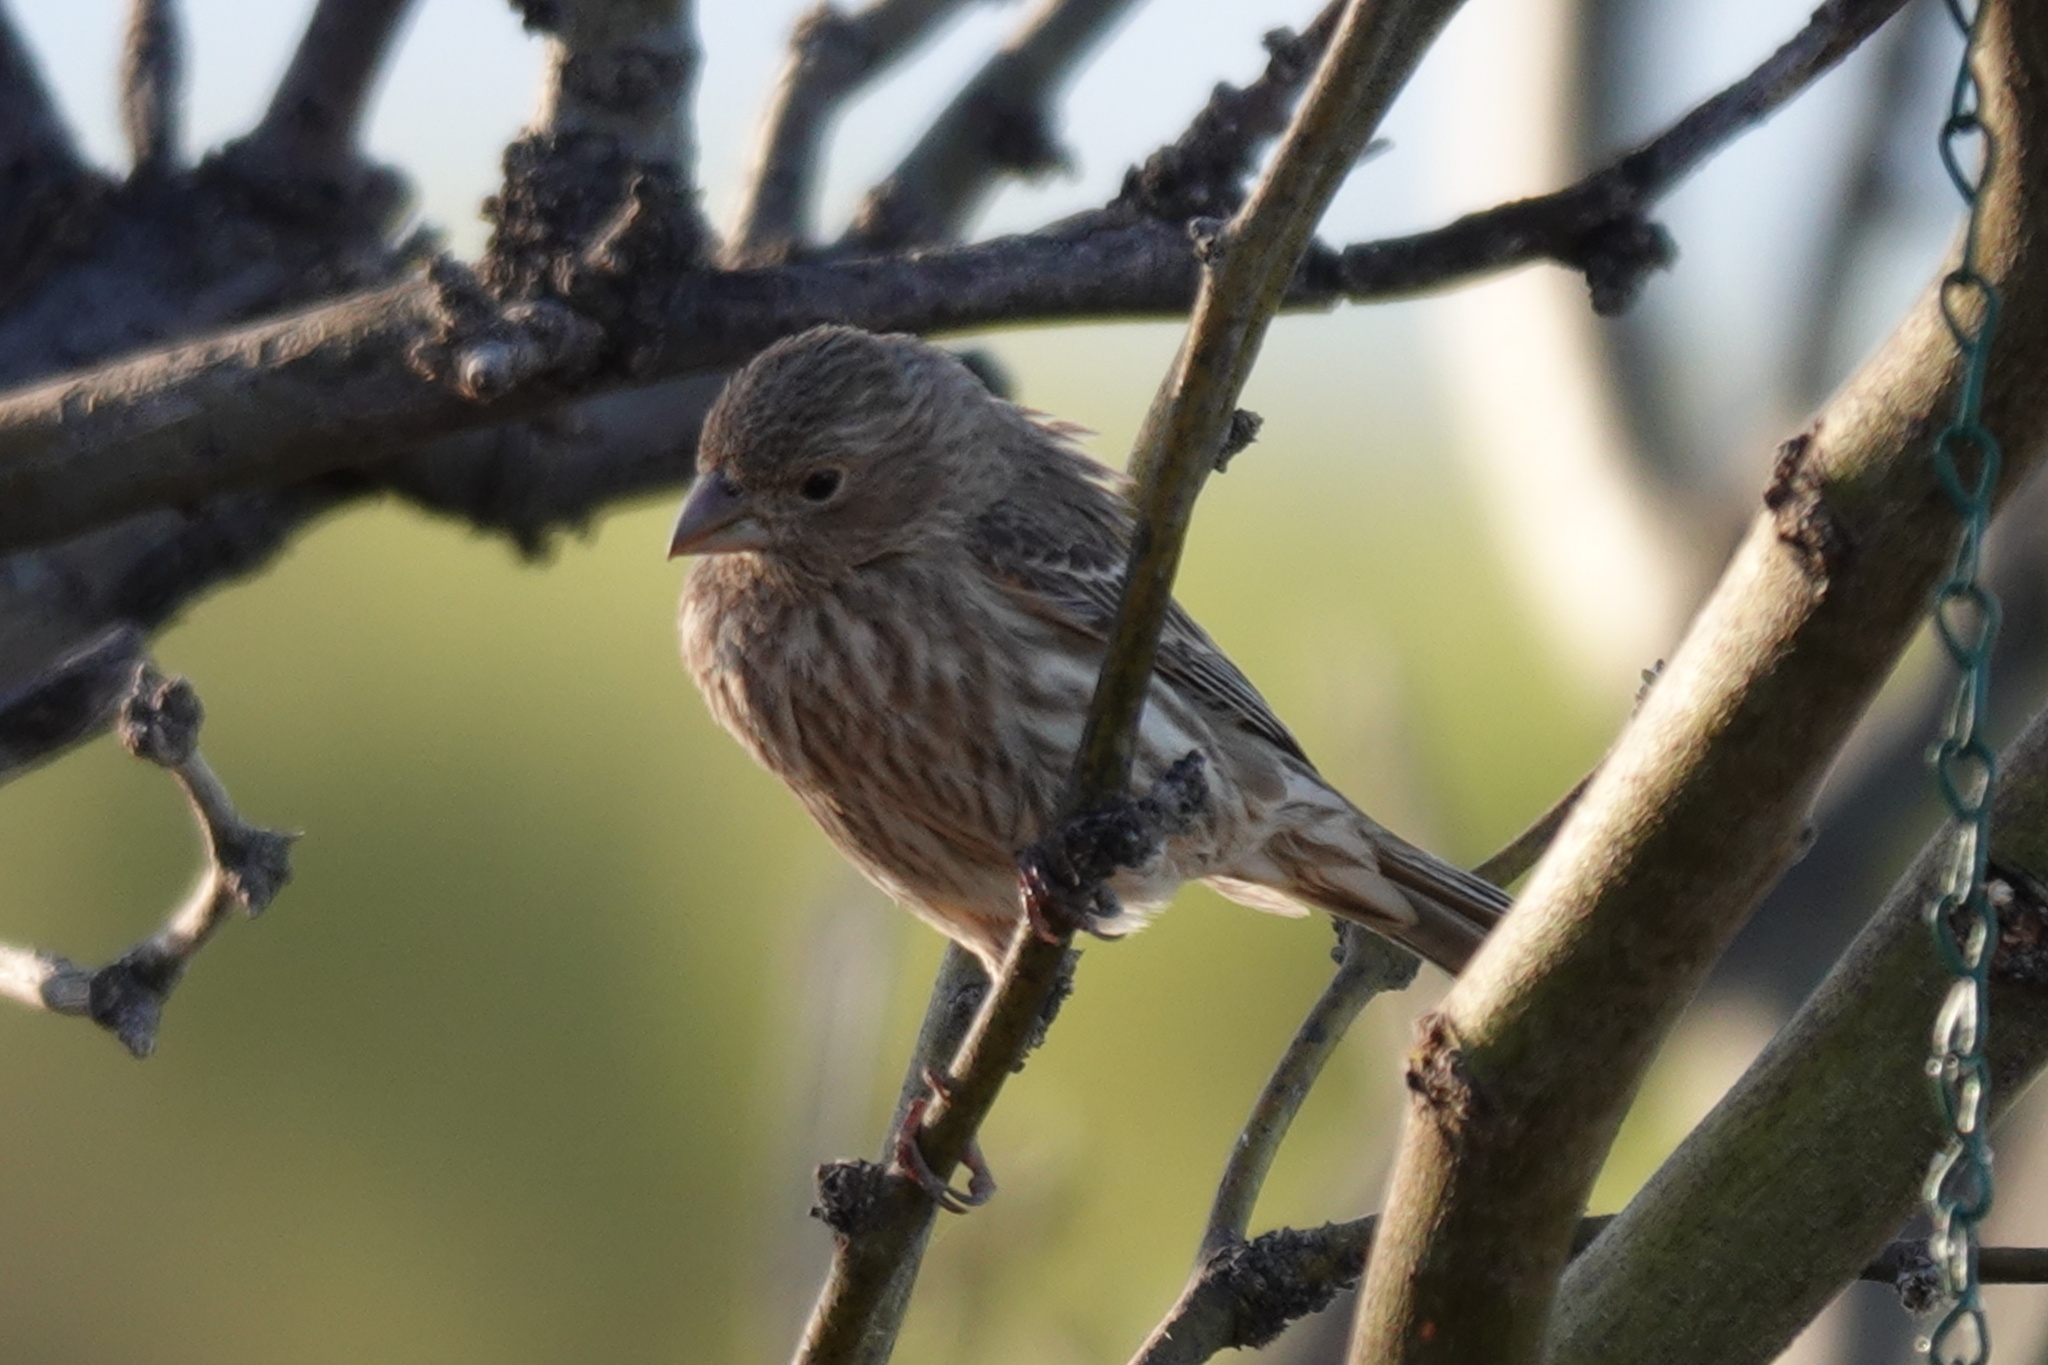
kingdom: Animalia
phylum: Chordata
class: Aves
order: Passeriformes
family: Fringillidae
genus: Haemorhous
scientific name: Haemorhous mexicanus
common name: House finch
